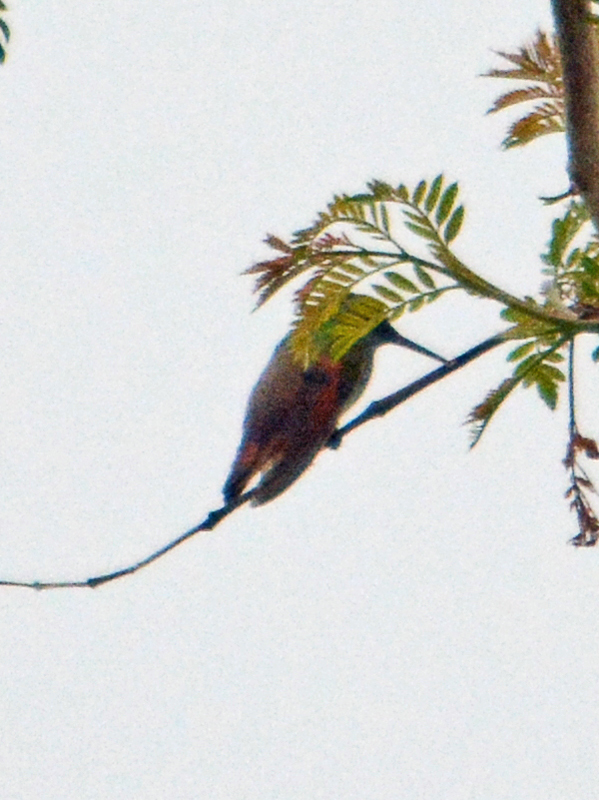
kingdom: Animalia
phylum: Chordata
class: Aves
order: Apodiformes
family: Trochilidae
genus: Saucerottia
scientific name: Saucerottia beryllina
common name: Berylline hummingbird
